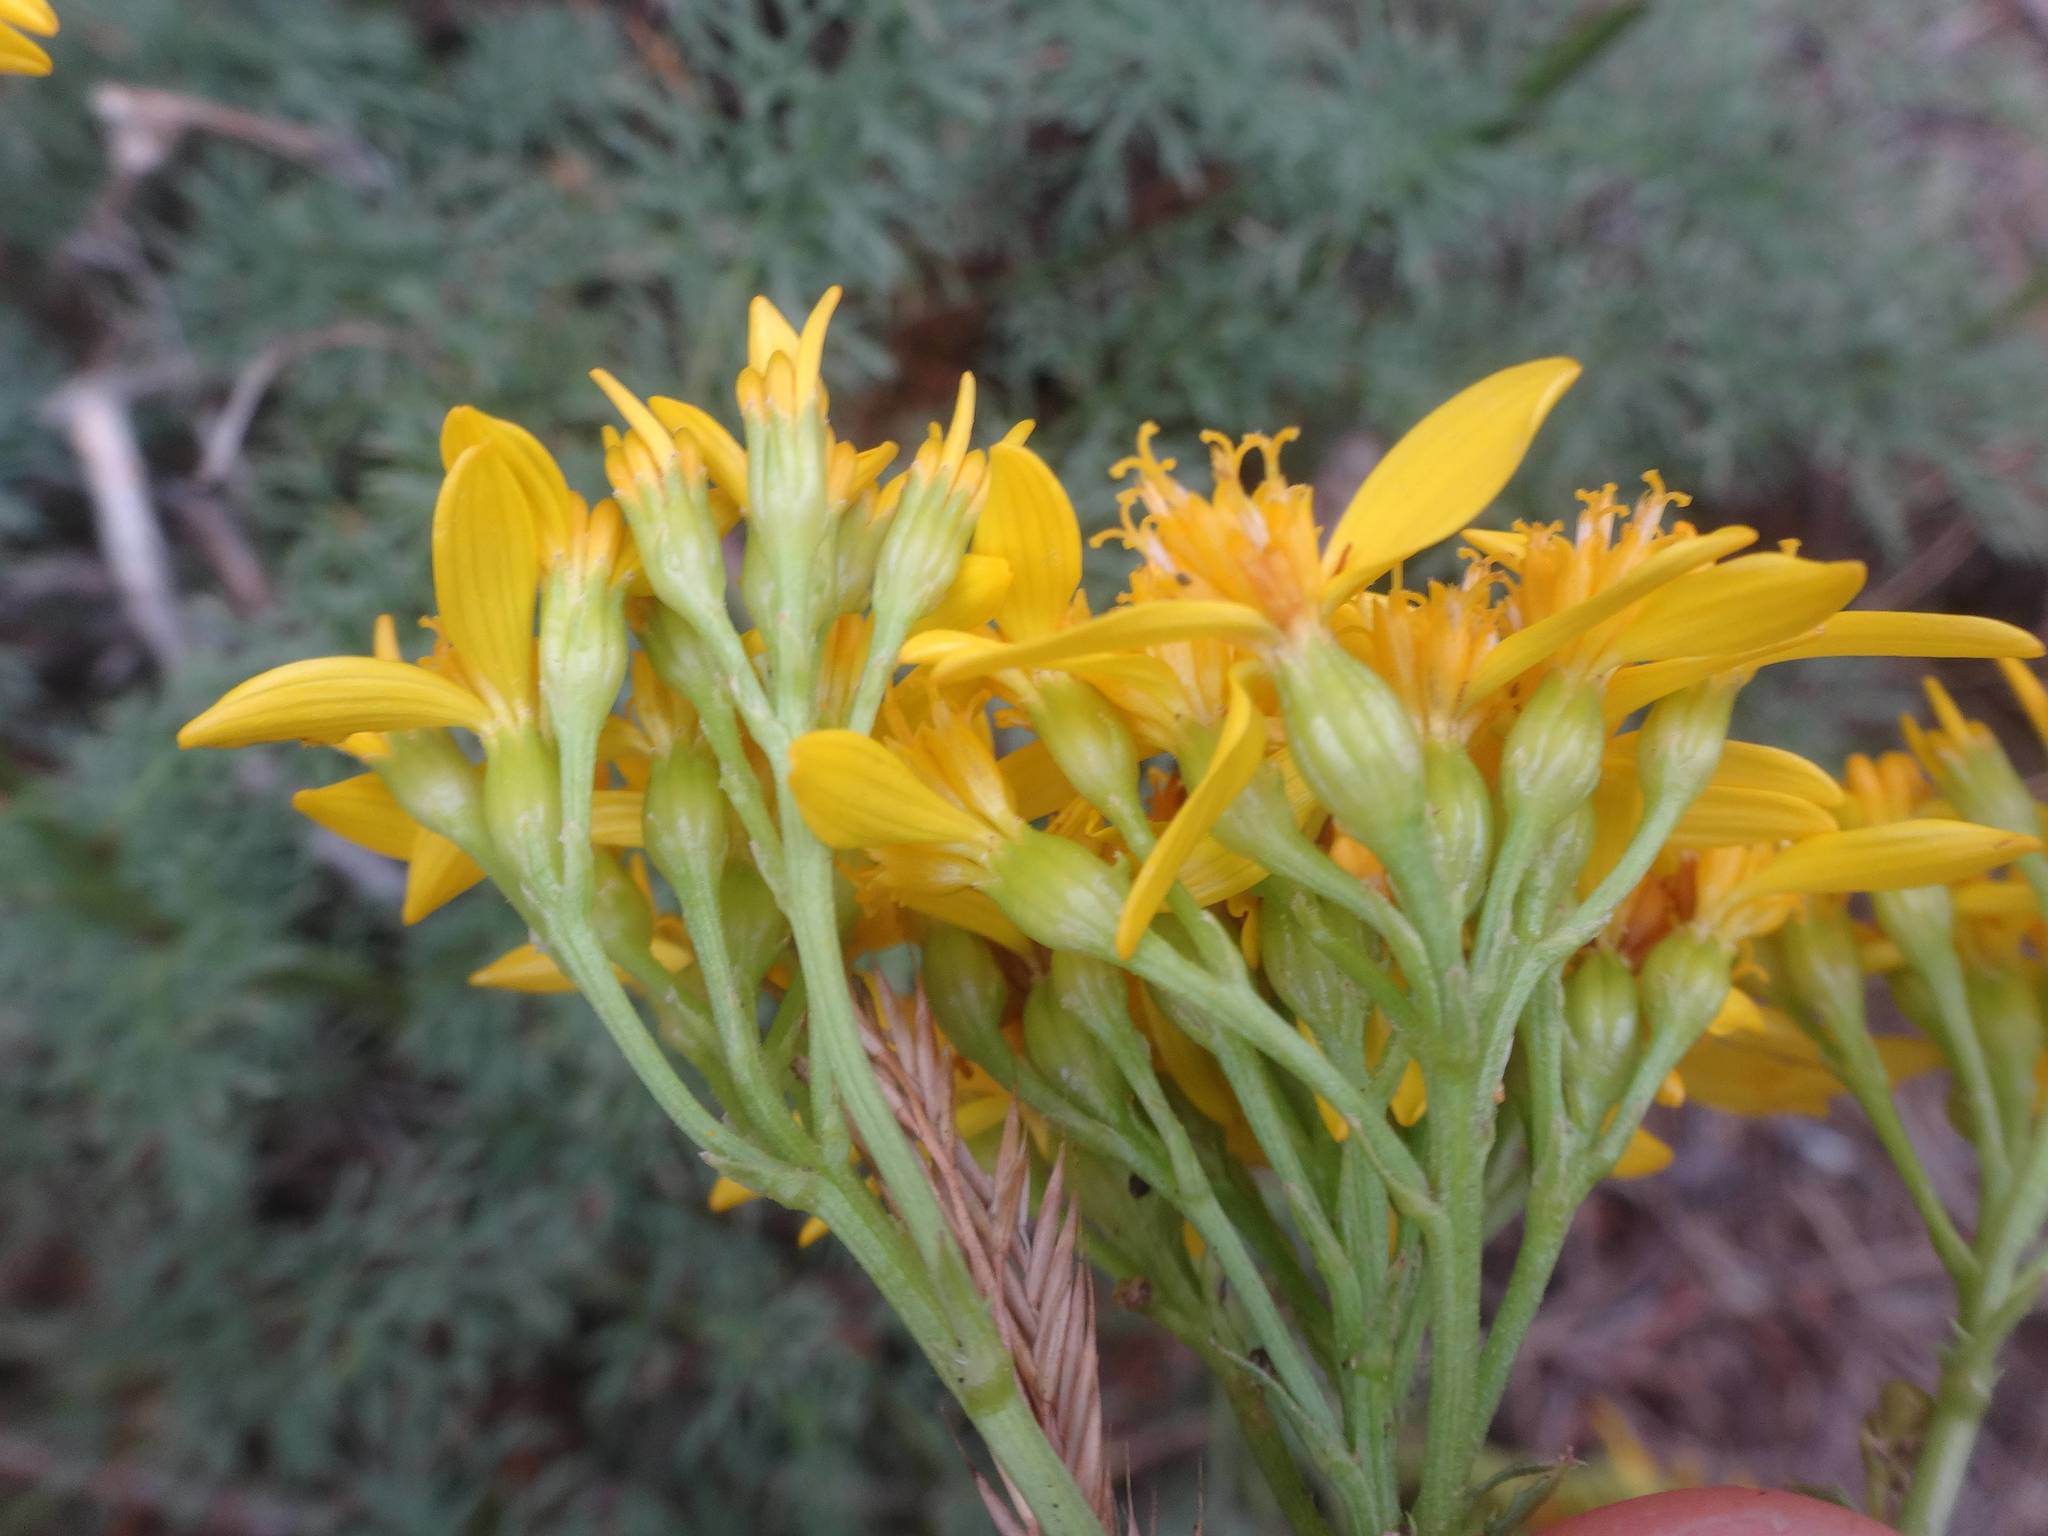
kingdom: Plantae
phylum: Tracheophyta
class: Magnoliopsida
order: Asterales
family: Asteraceae
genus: Jacobaea
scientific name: Jacobaea adonidifolia
